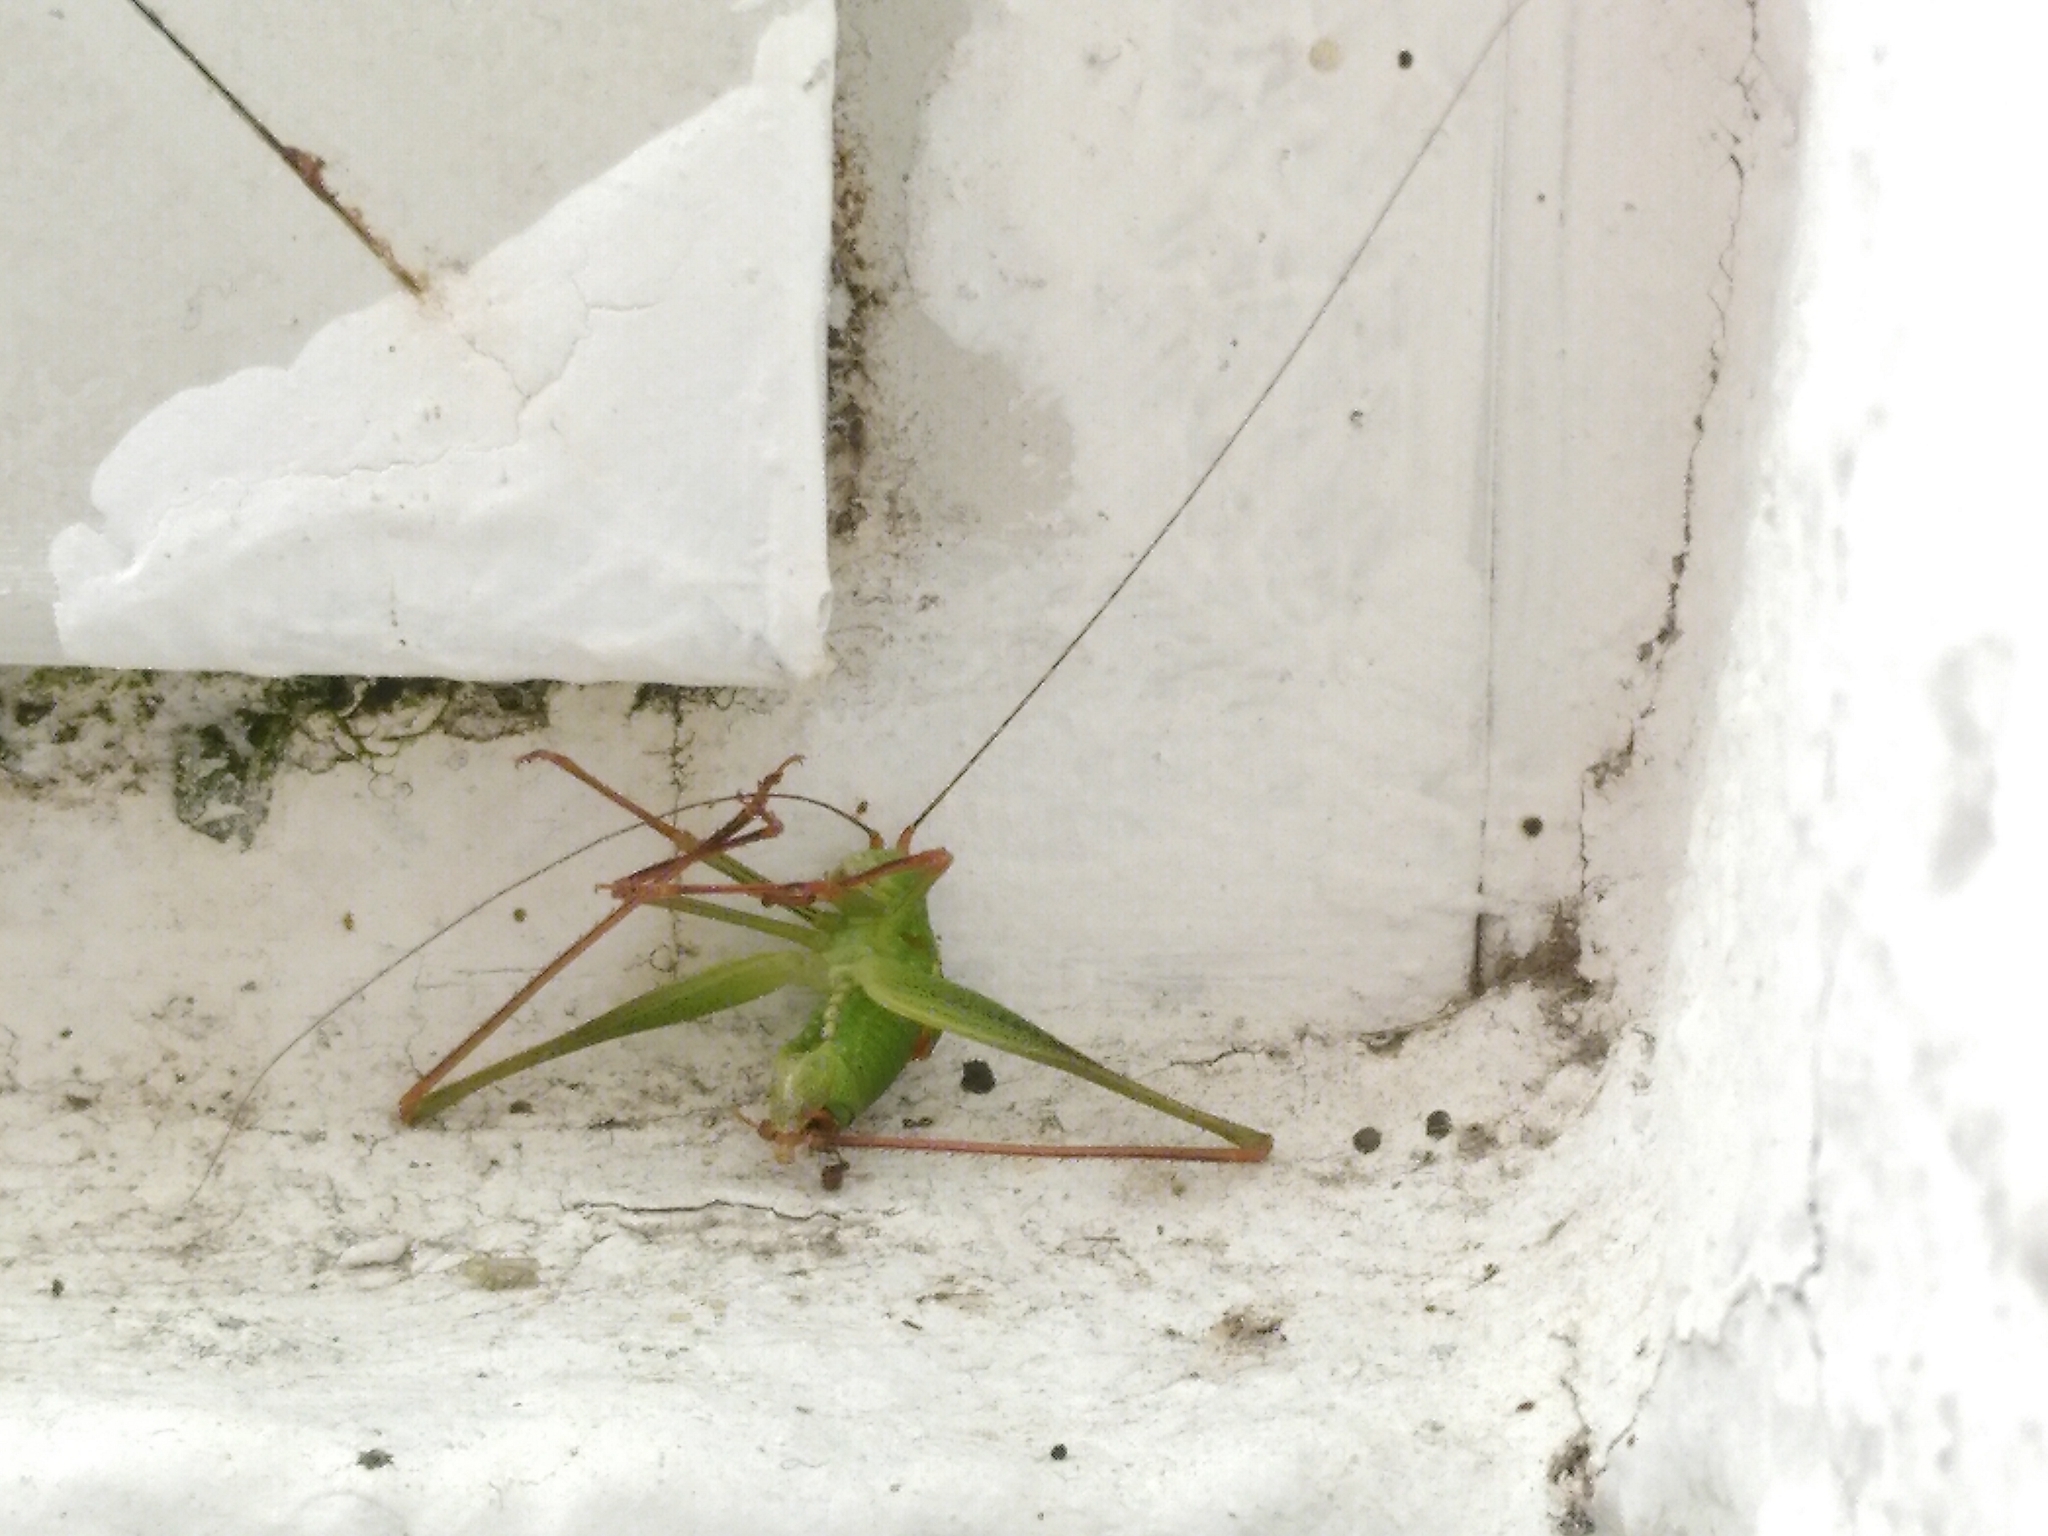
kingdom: Animalia
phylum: Arthropoda
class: Insecta
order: Orthoptera
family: Tettigoniidae
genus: Leptophyes
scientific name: Leptophyes punctatissima
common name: Speckled bush-cricket
